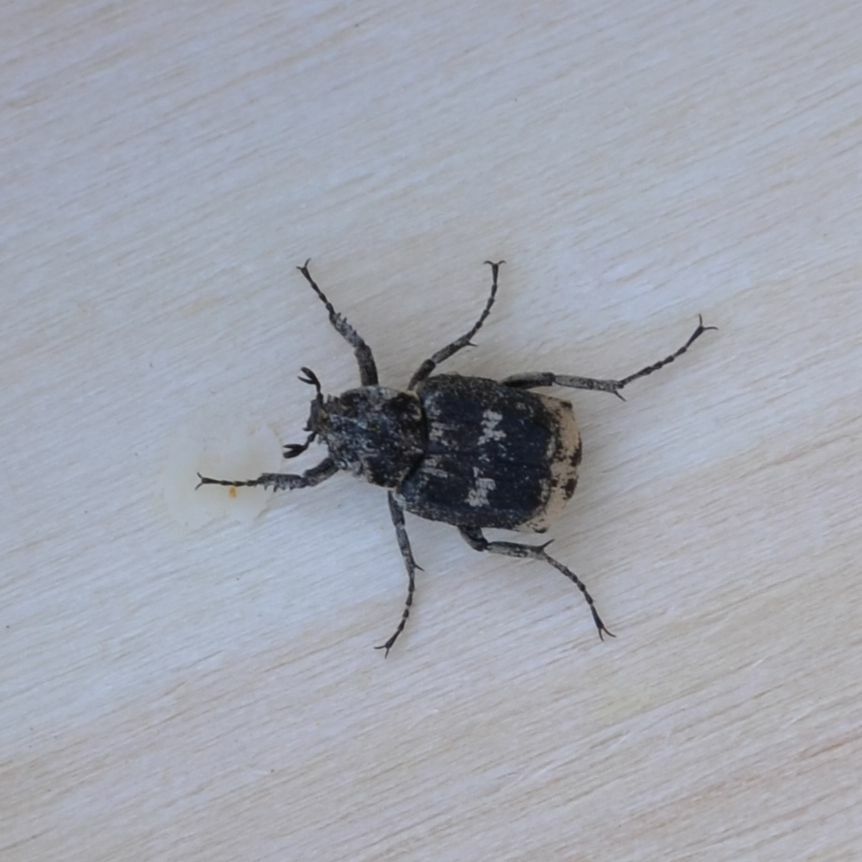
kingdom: Animalia
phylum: Arthropoda
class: Insecta
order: Coleoptera
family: Scarabaeidae
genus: Valgus
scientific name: Valgus hemipterus
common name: Bug flower chafer
